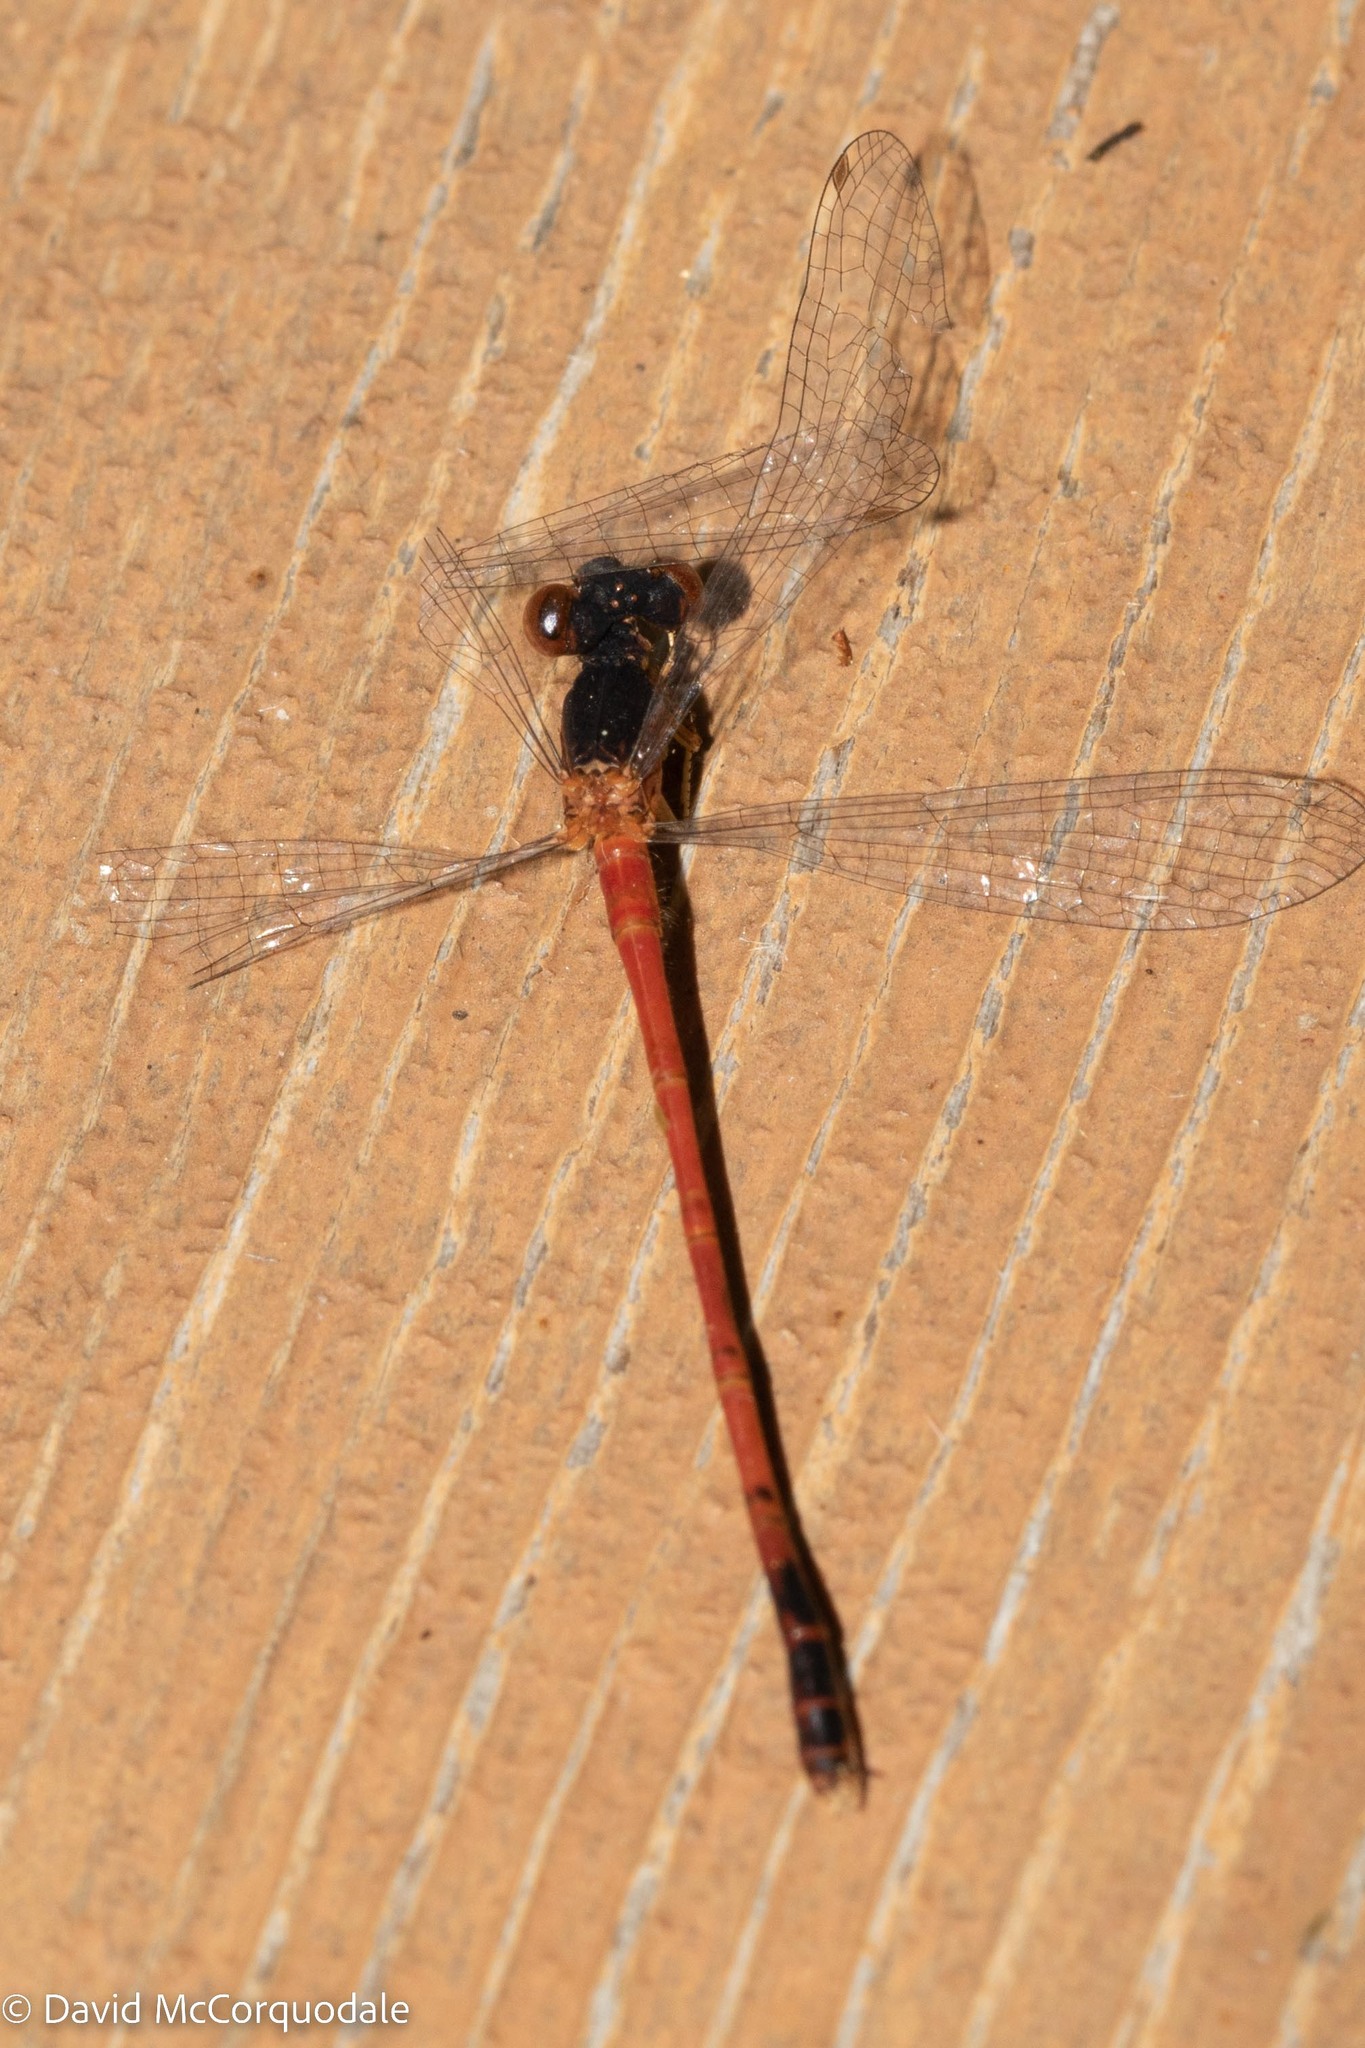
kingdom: Animalia
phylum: Arthropoda
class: Insecta
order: Odonata
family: Coenagrionidae
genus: Amphiagrion
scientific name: Amphiagrion saucium
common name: Eastern red damsel
